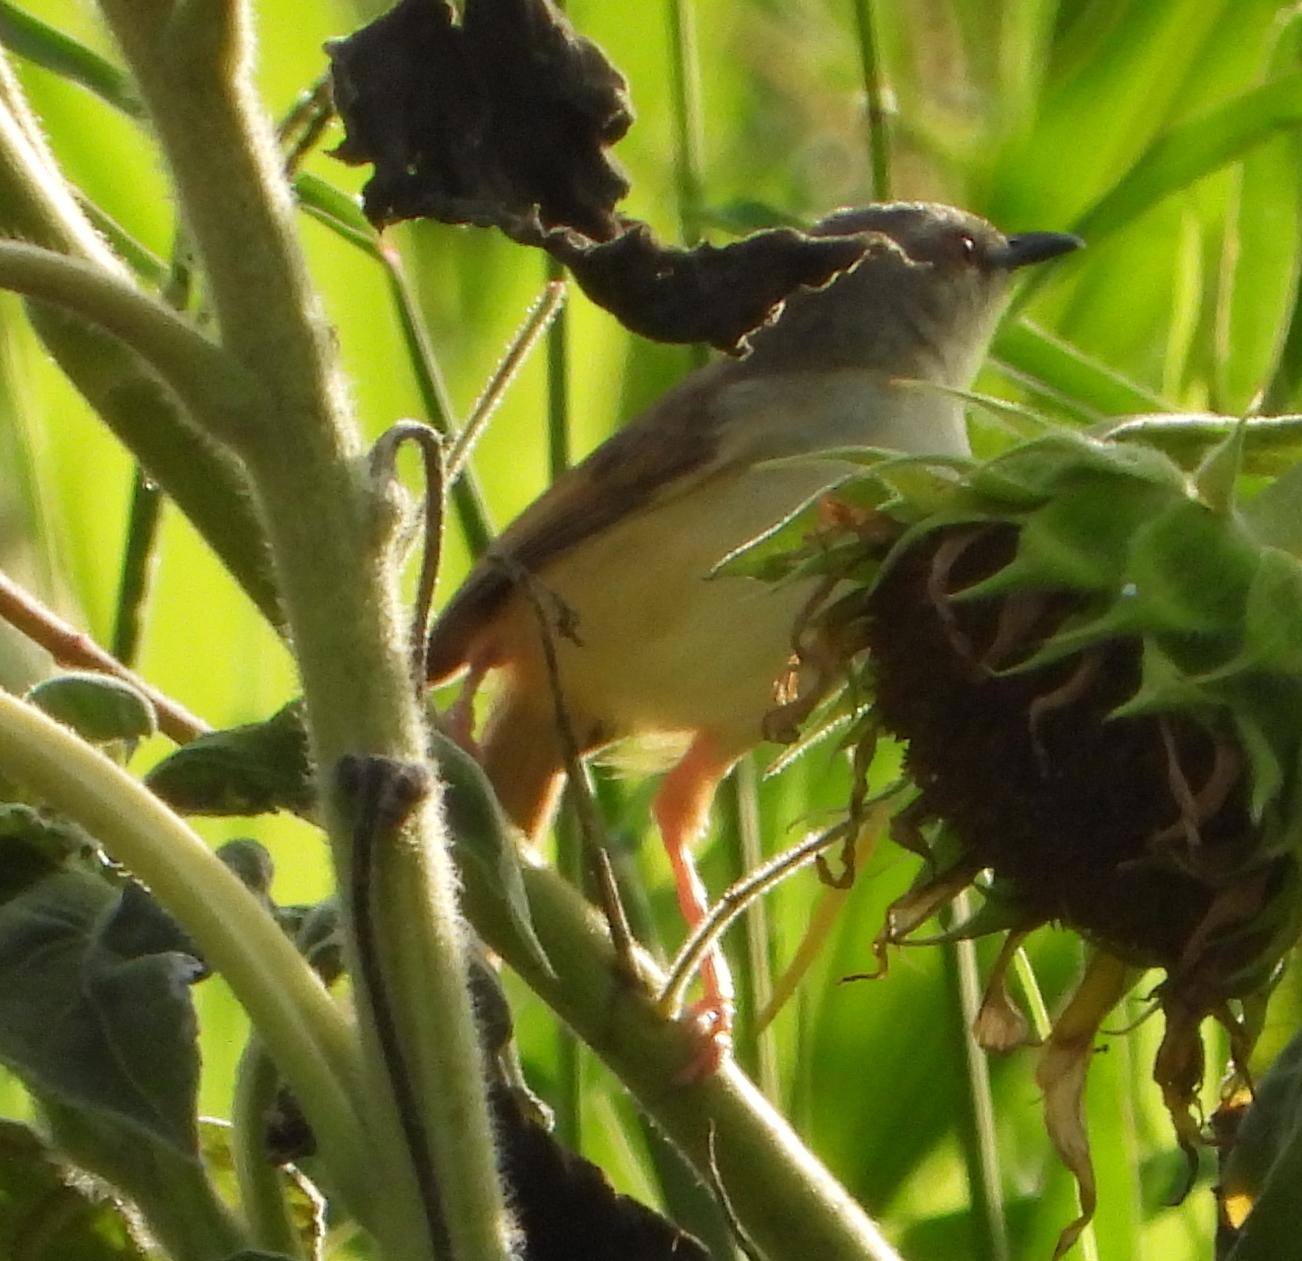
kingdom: Animalia
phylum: Chordata
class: Aves
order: Passeriformes
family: Cisticolidae
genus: Prinia
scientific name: Prinia subflava
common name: Tawny-flanked prinia
